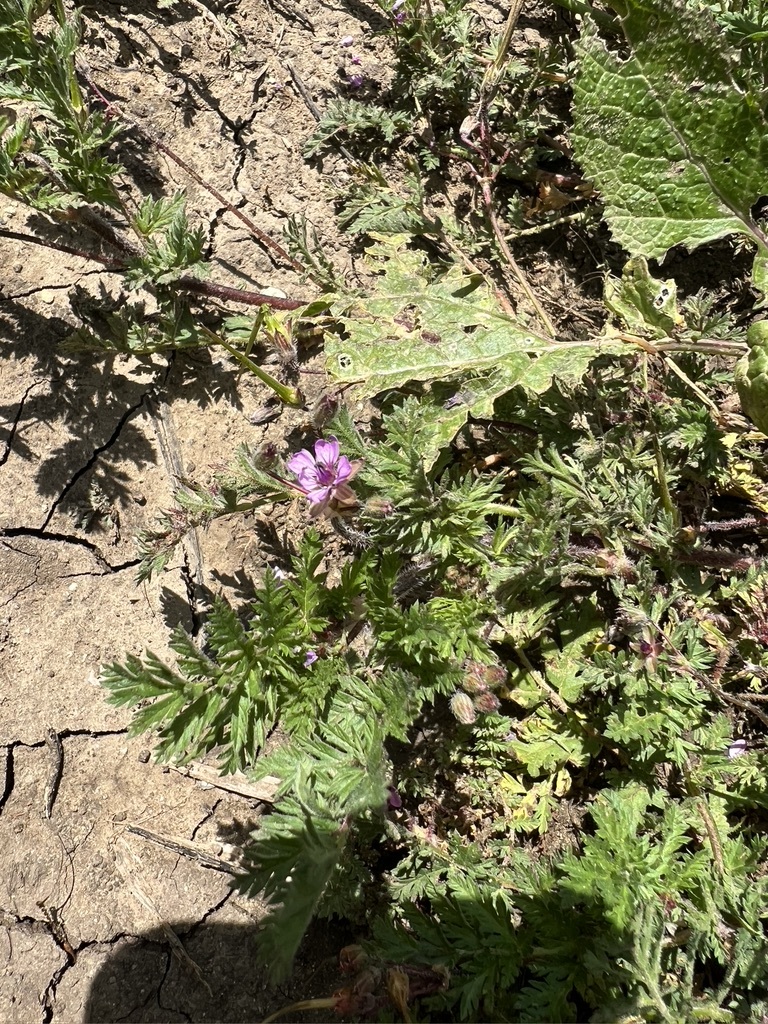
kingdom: Plantae
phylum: Tracheophyta
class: Magnoliopsida
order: Geraniales
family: Geraniaceae
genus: Erodium
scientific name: Erodium cicutarium
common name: Common stork's-bill
